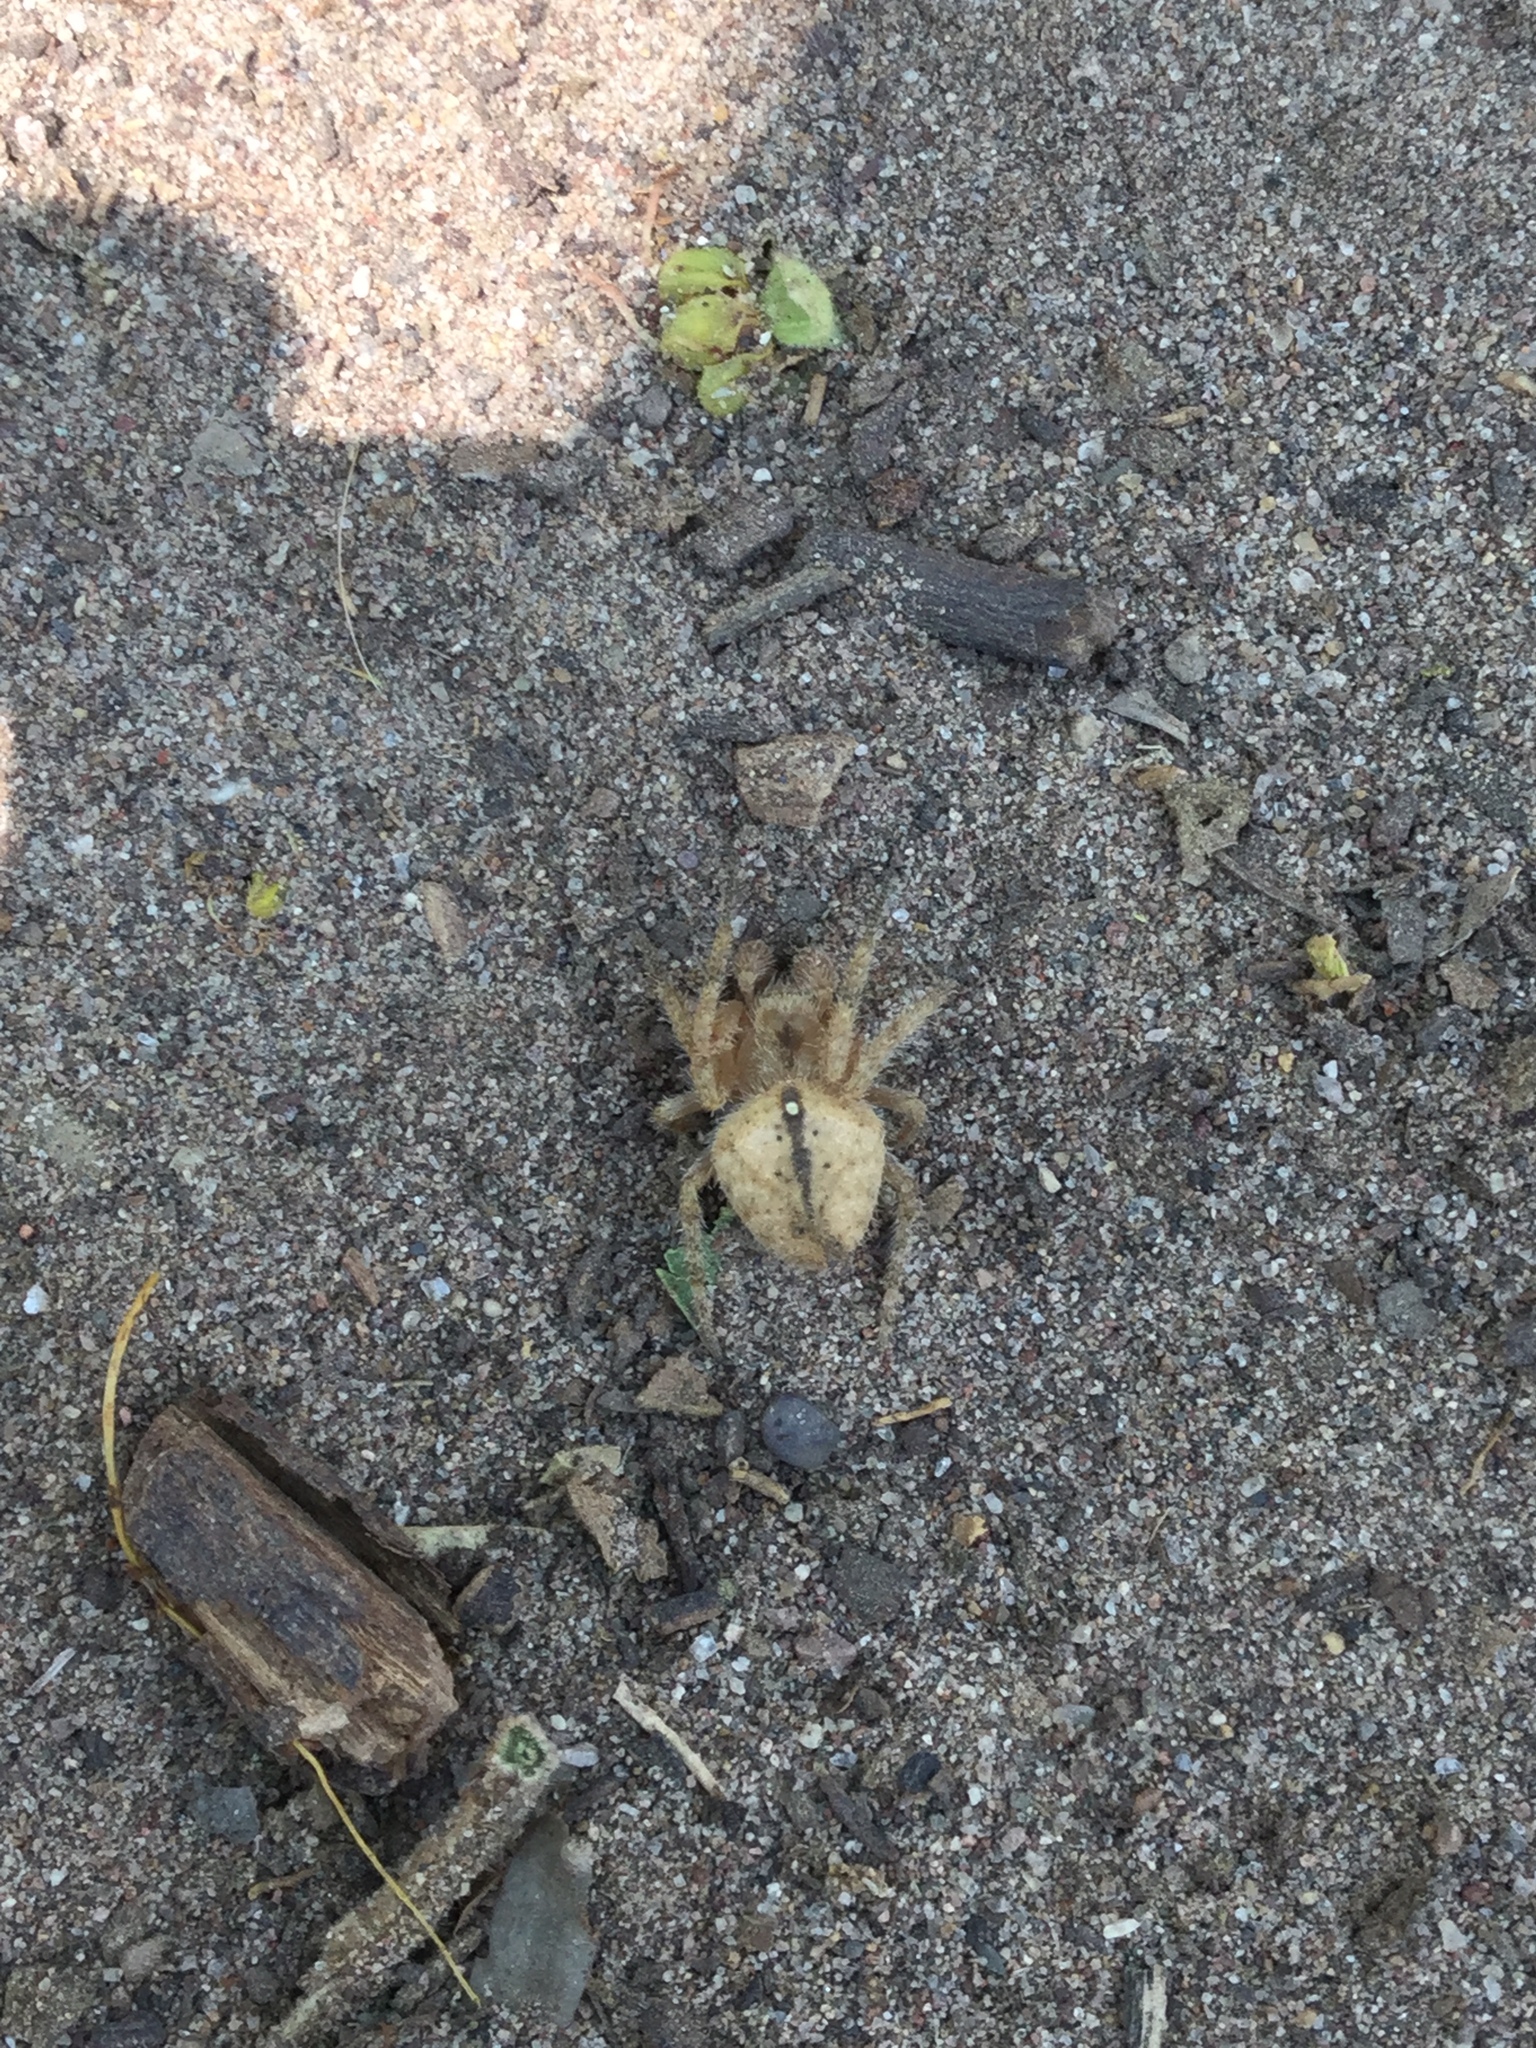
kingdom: Animalia
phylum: Arthropoda
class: Arachnida
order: Araneae
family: Araneidae
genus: Eriophora
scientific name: Eriophora edax
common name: Orb weavers
